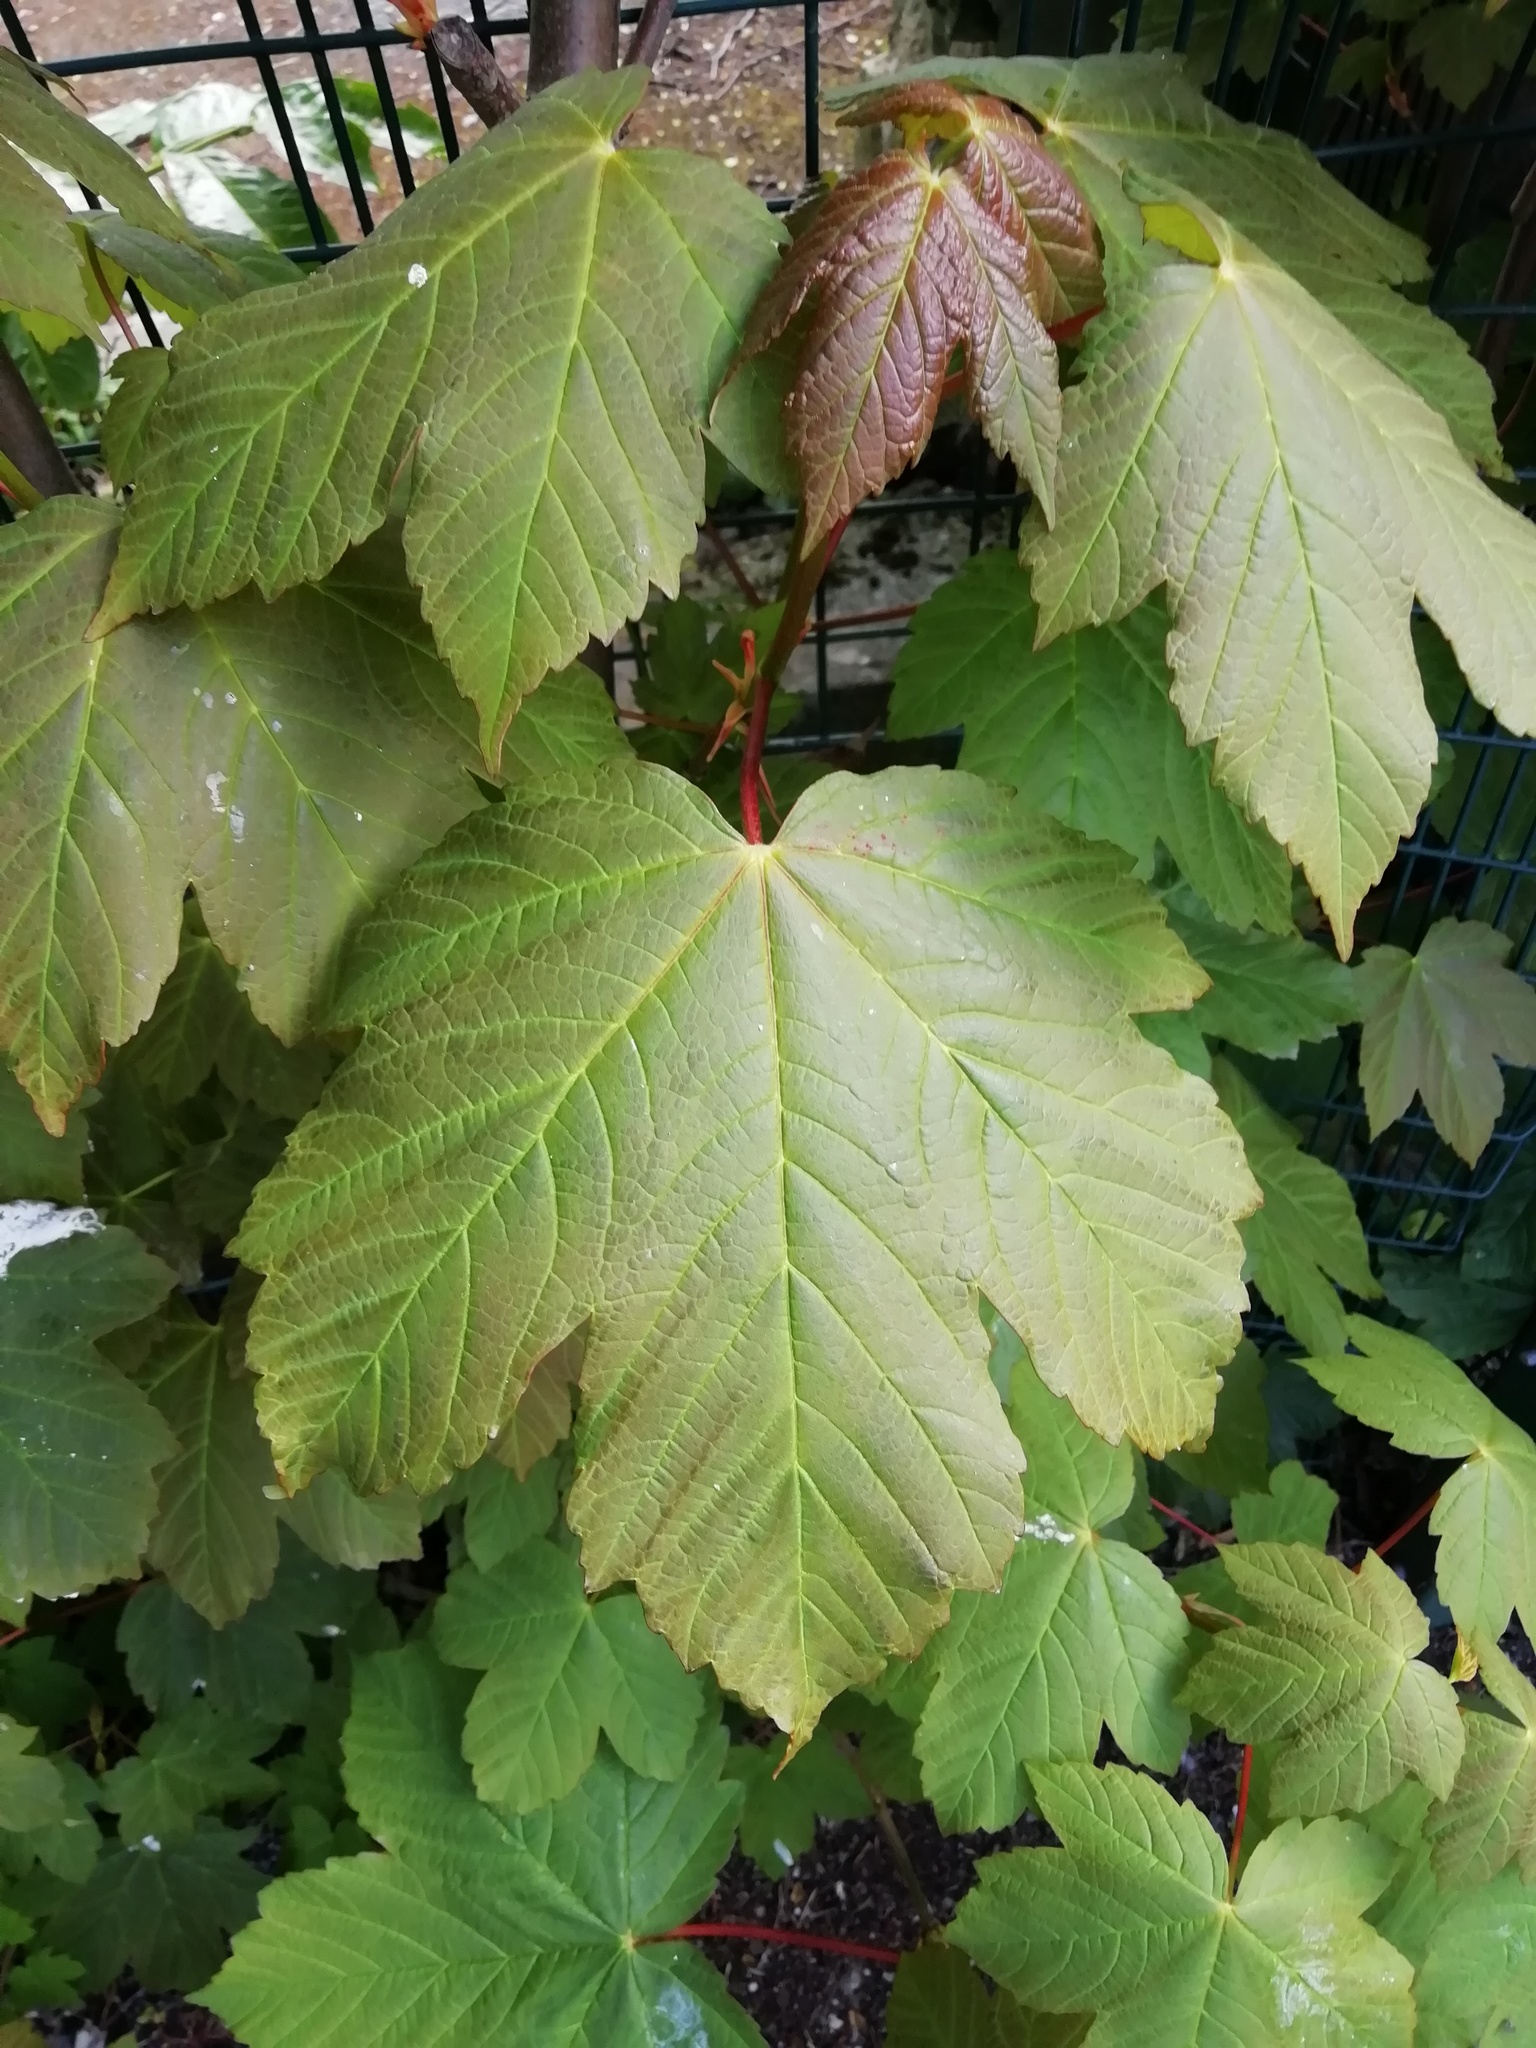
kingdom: Plantae
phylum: Tracheophyta
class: Magnoliopsida
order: Sapindales
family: Sapindaceae
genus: Acer
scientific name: Acer pseudoplatanus
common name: Sycamore
